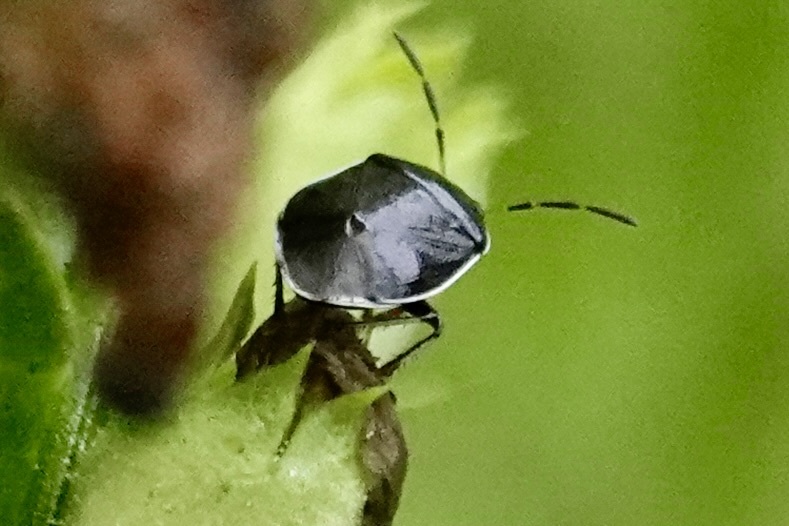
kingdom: Animalia
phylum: Arthropoda
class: Insecta
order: Hemiptera
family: Cydnidae
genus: Sehirus
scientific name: Sehirus cinctus
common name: White-margined burrower bug
